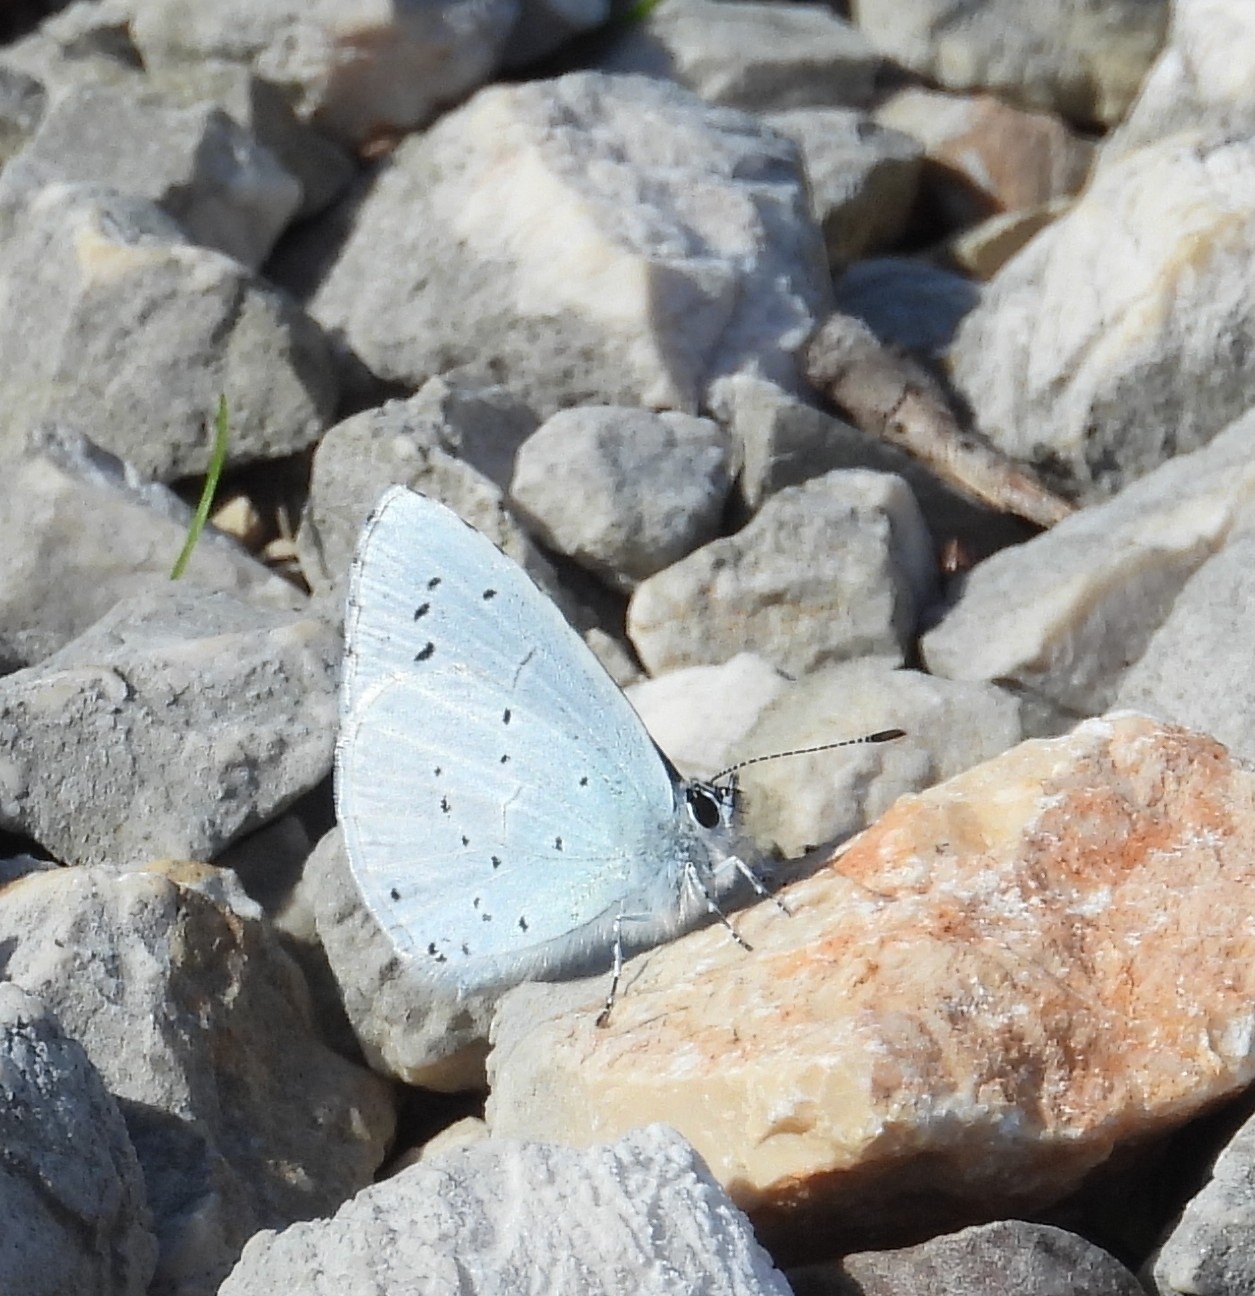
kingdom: Animalia
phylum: Arthropoda
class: Insecta
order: Lepidoptera
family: Lycaenidae
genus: Celastrina
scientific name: Celastrina argiolus
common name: Holly blue
